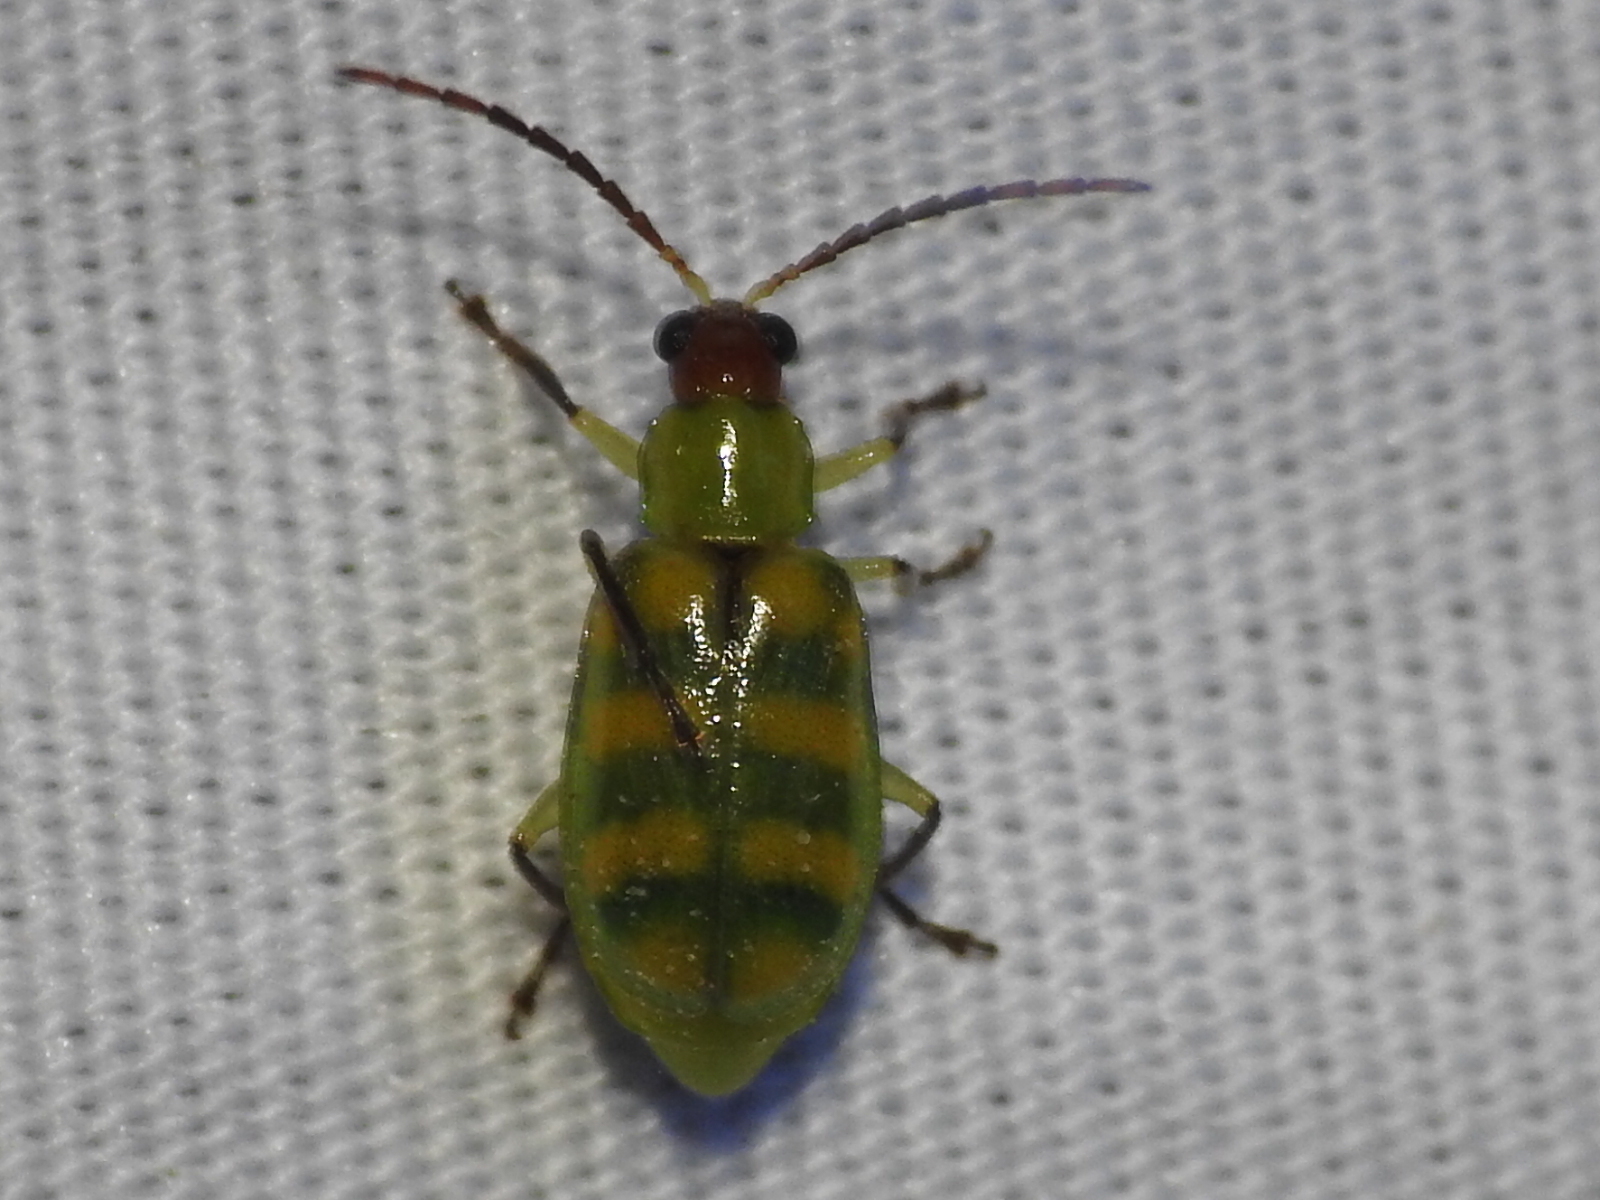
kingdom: Animalia
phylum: Arthropoda
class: Insecta
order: Coleoptera
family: Chrysomelidae
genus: Diabrotica
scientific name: Diabrotica balteata
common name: Leaf beetle
